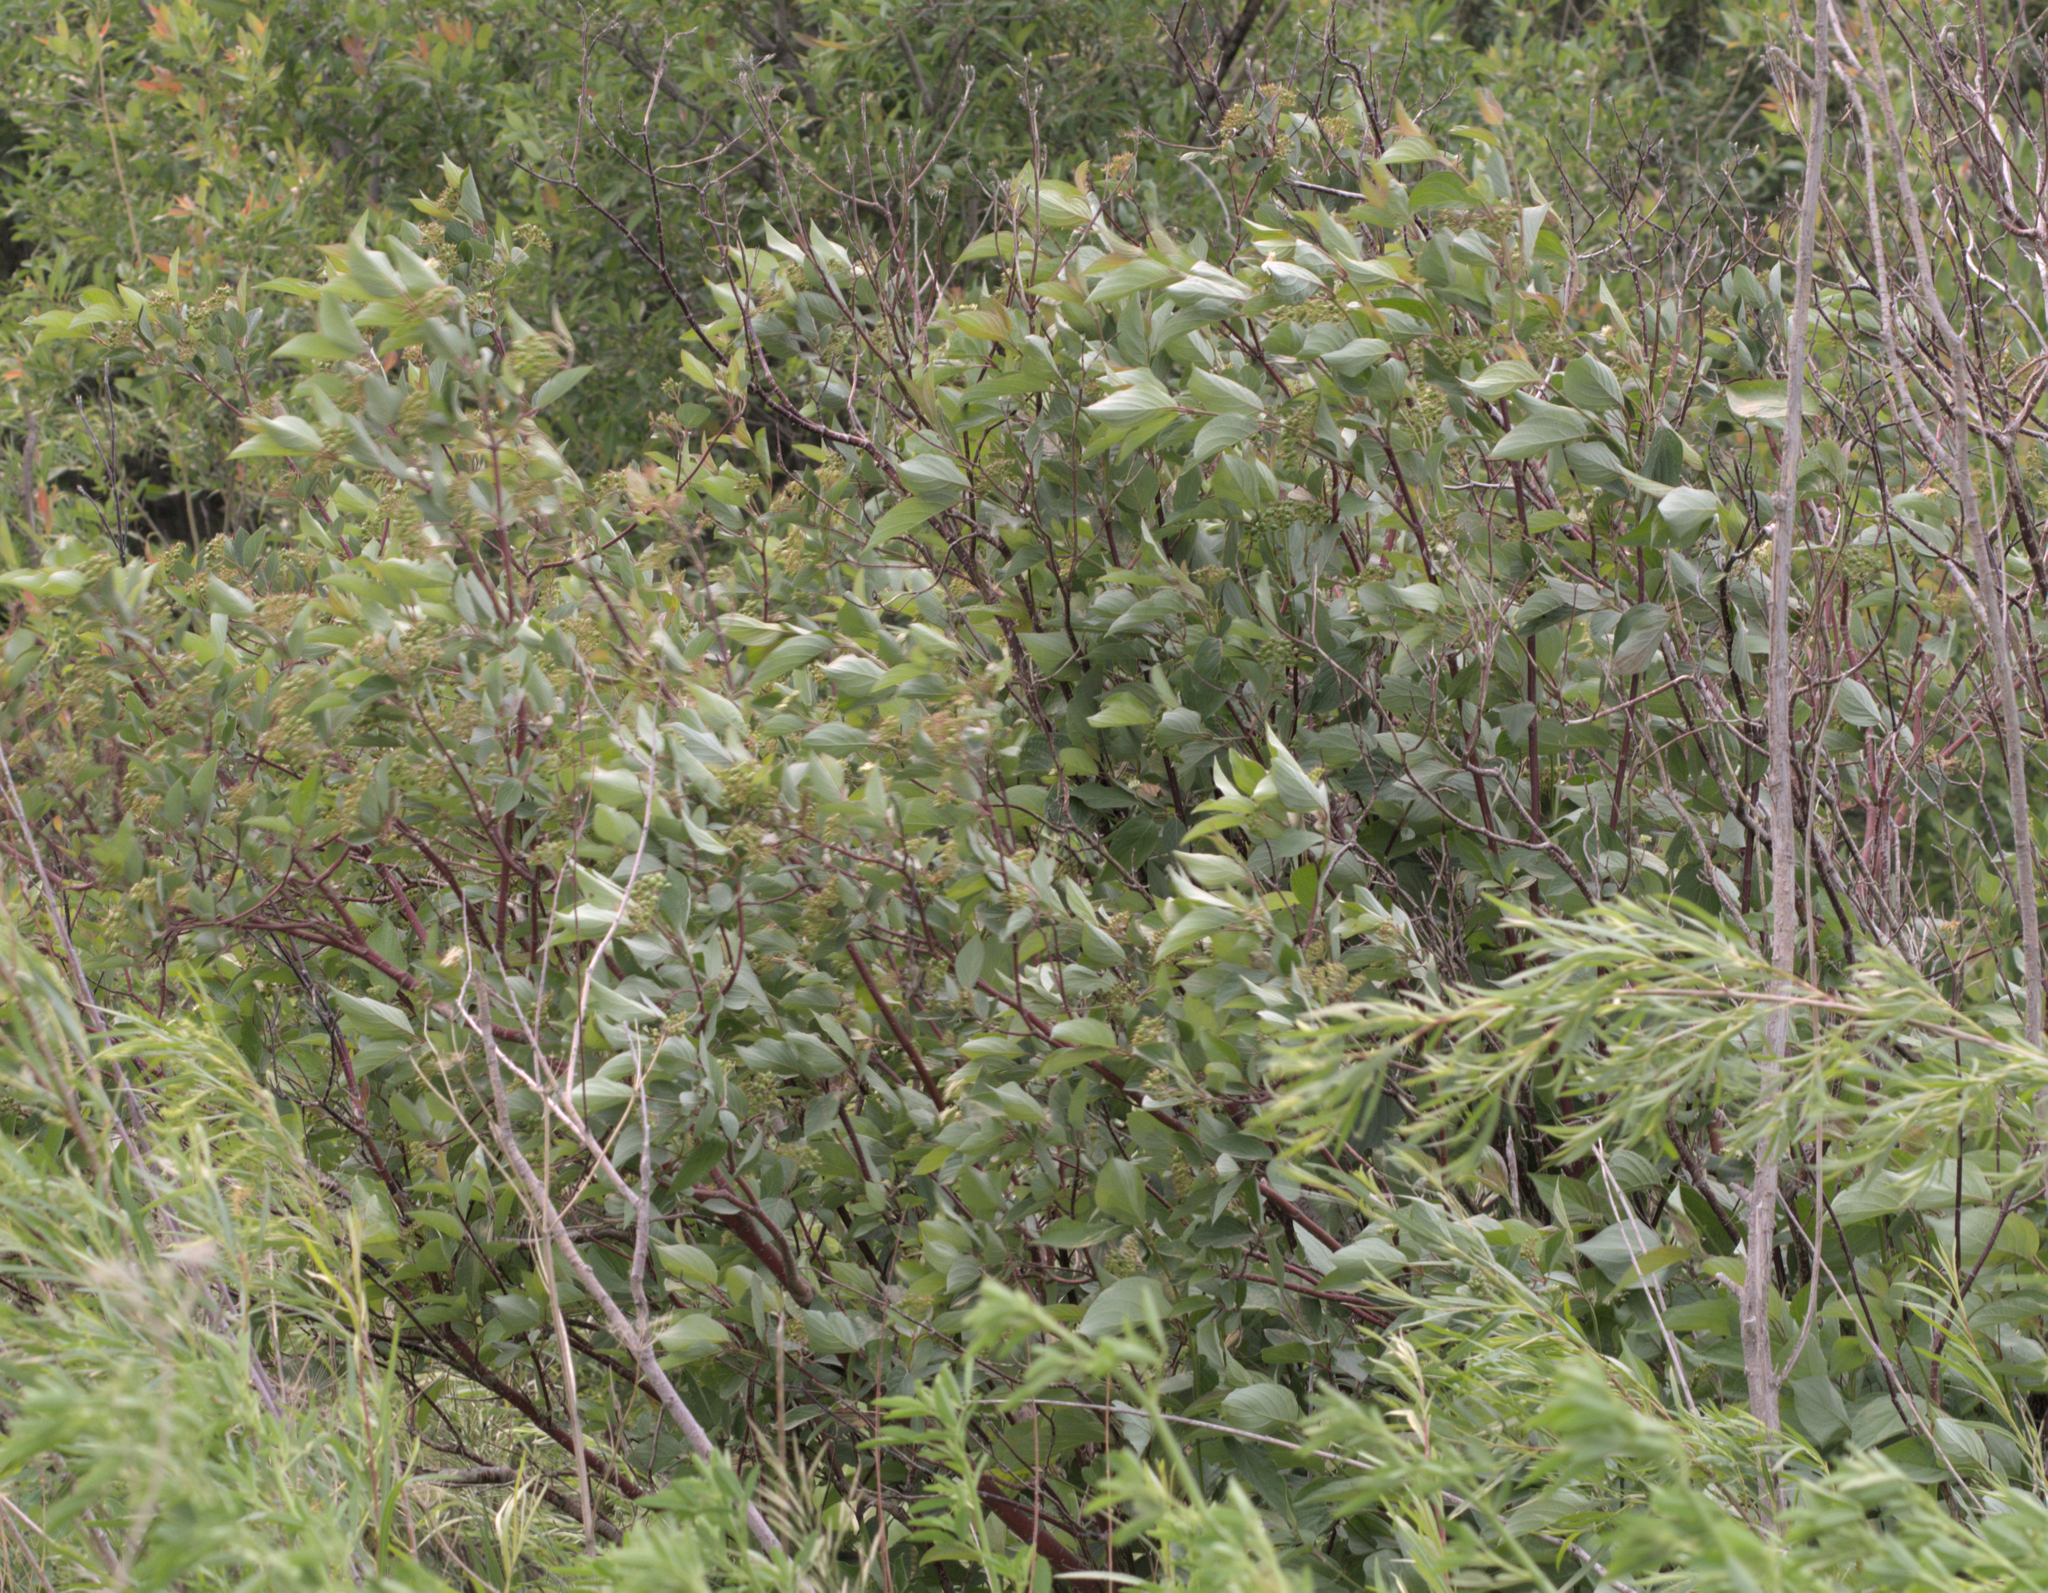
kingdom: Plantae
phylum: Tracheophyta
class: Magnoliopsida
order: Cornales
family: Cornaceae
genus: Cornus
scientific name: Cornus sericea
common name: Red-osier dogwood
